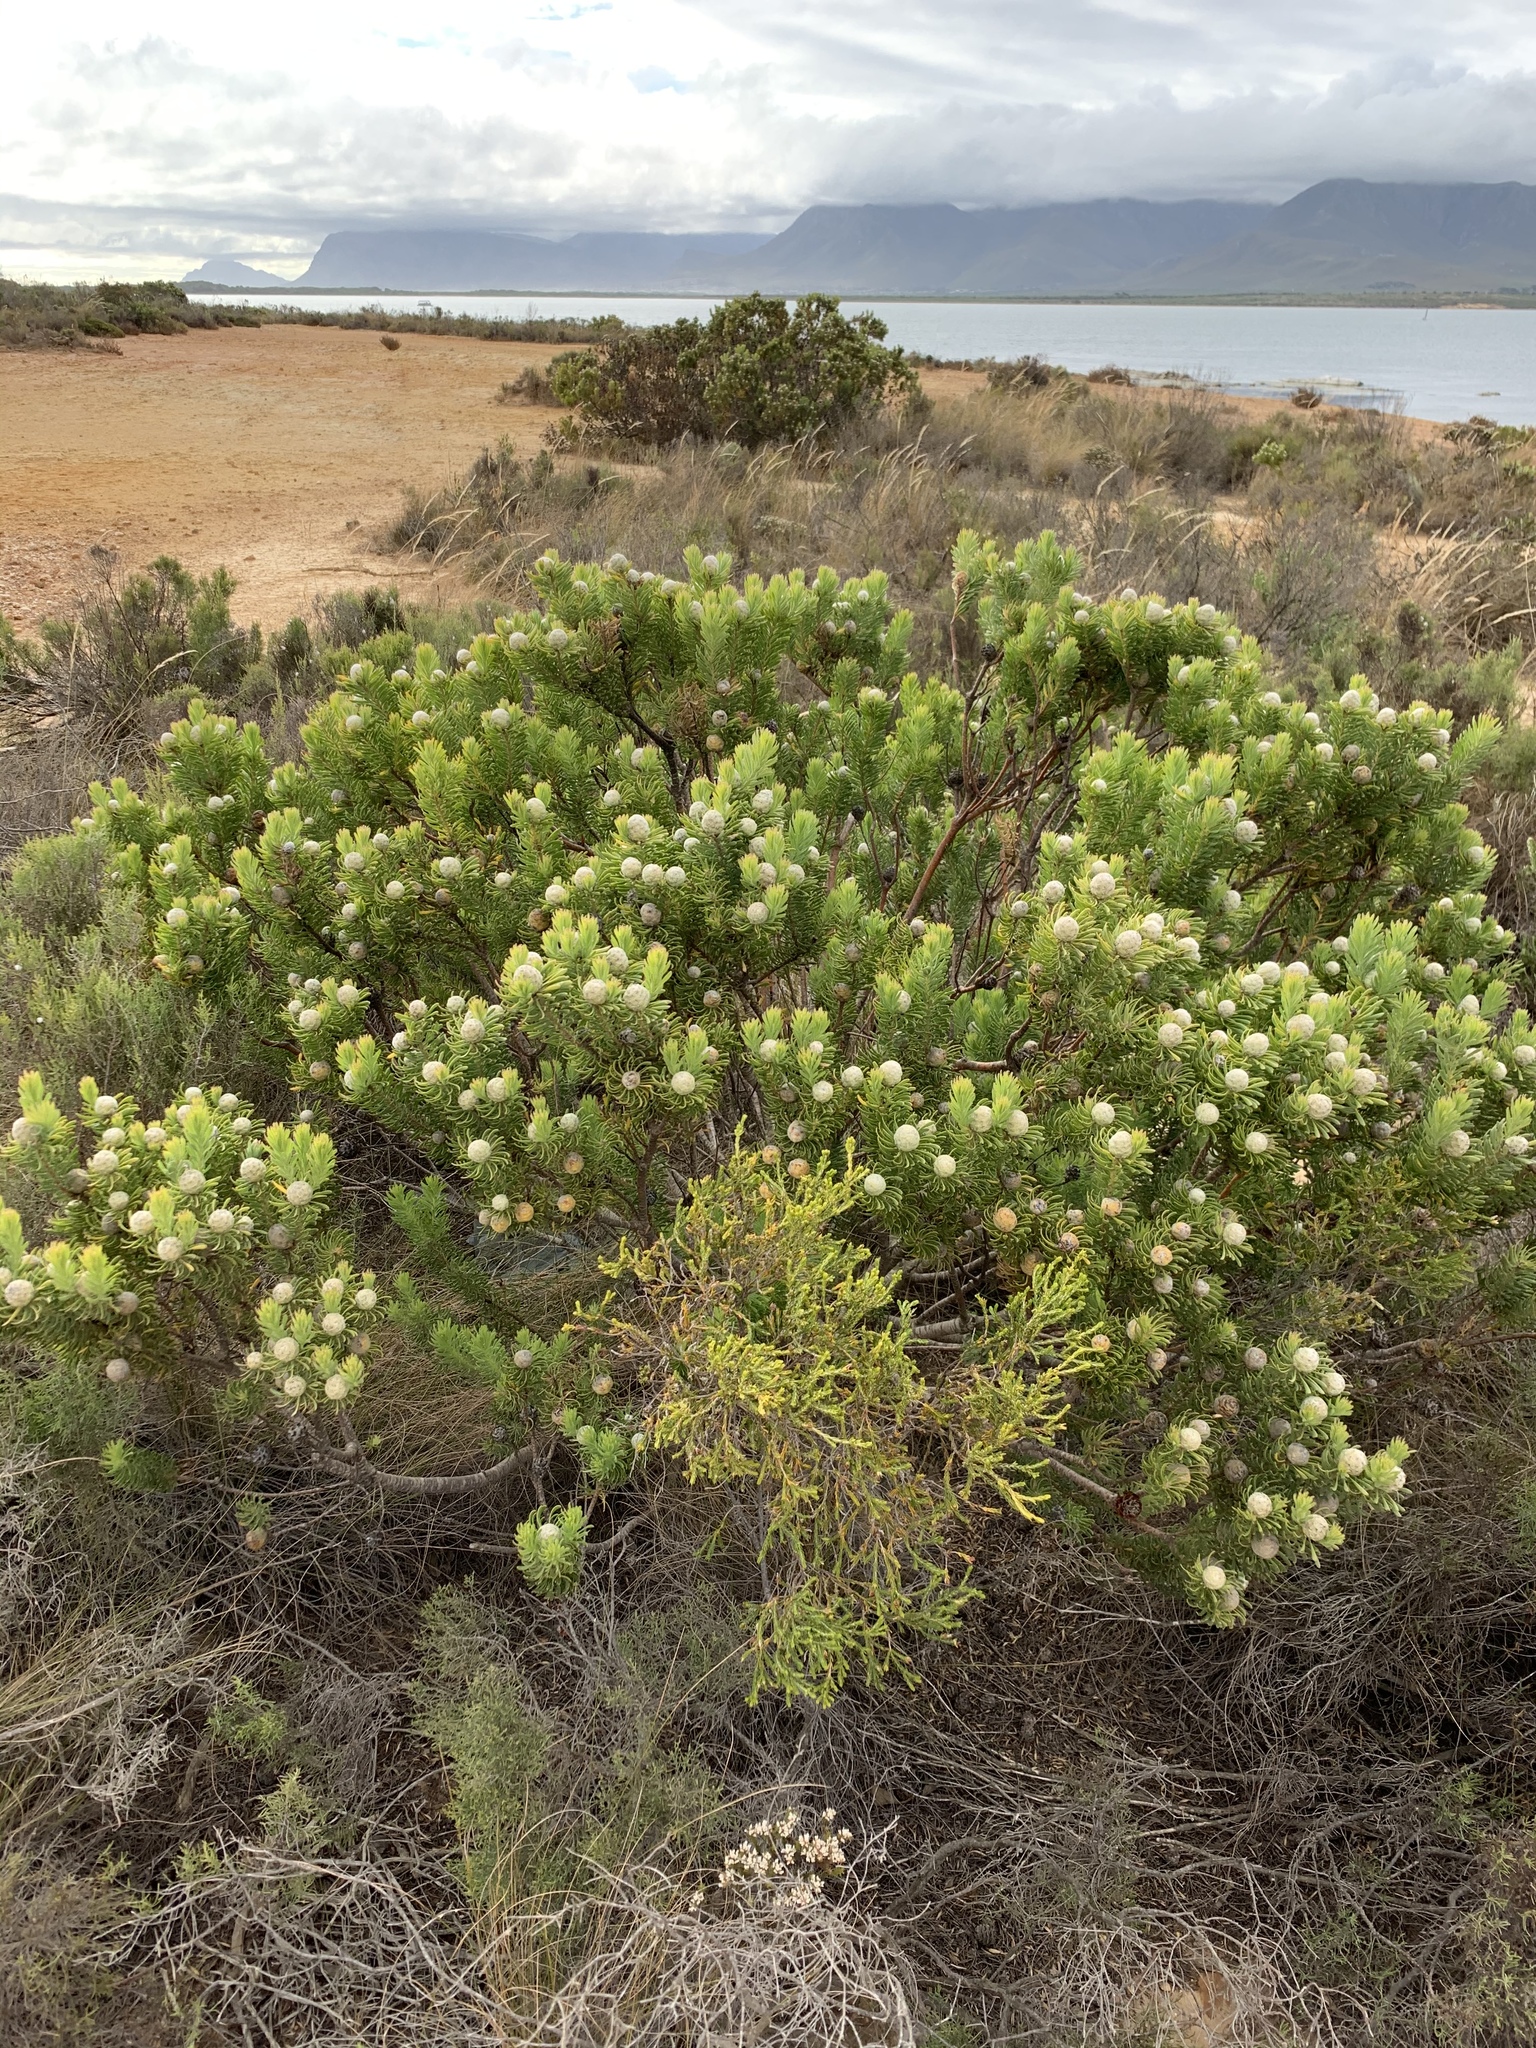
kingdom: Plantae
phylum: Tracheophyta
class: Magnoliopsida
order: Proteales
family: Proteaceae
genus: Leucadendron
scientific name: Leucadendron linifolium
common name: Line-leaf conebush
